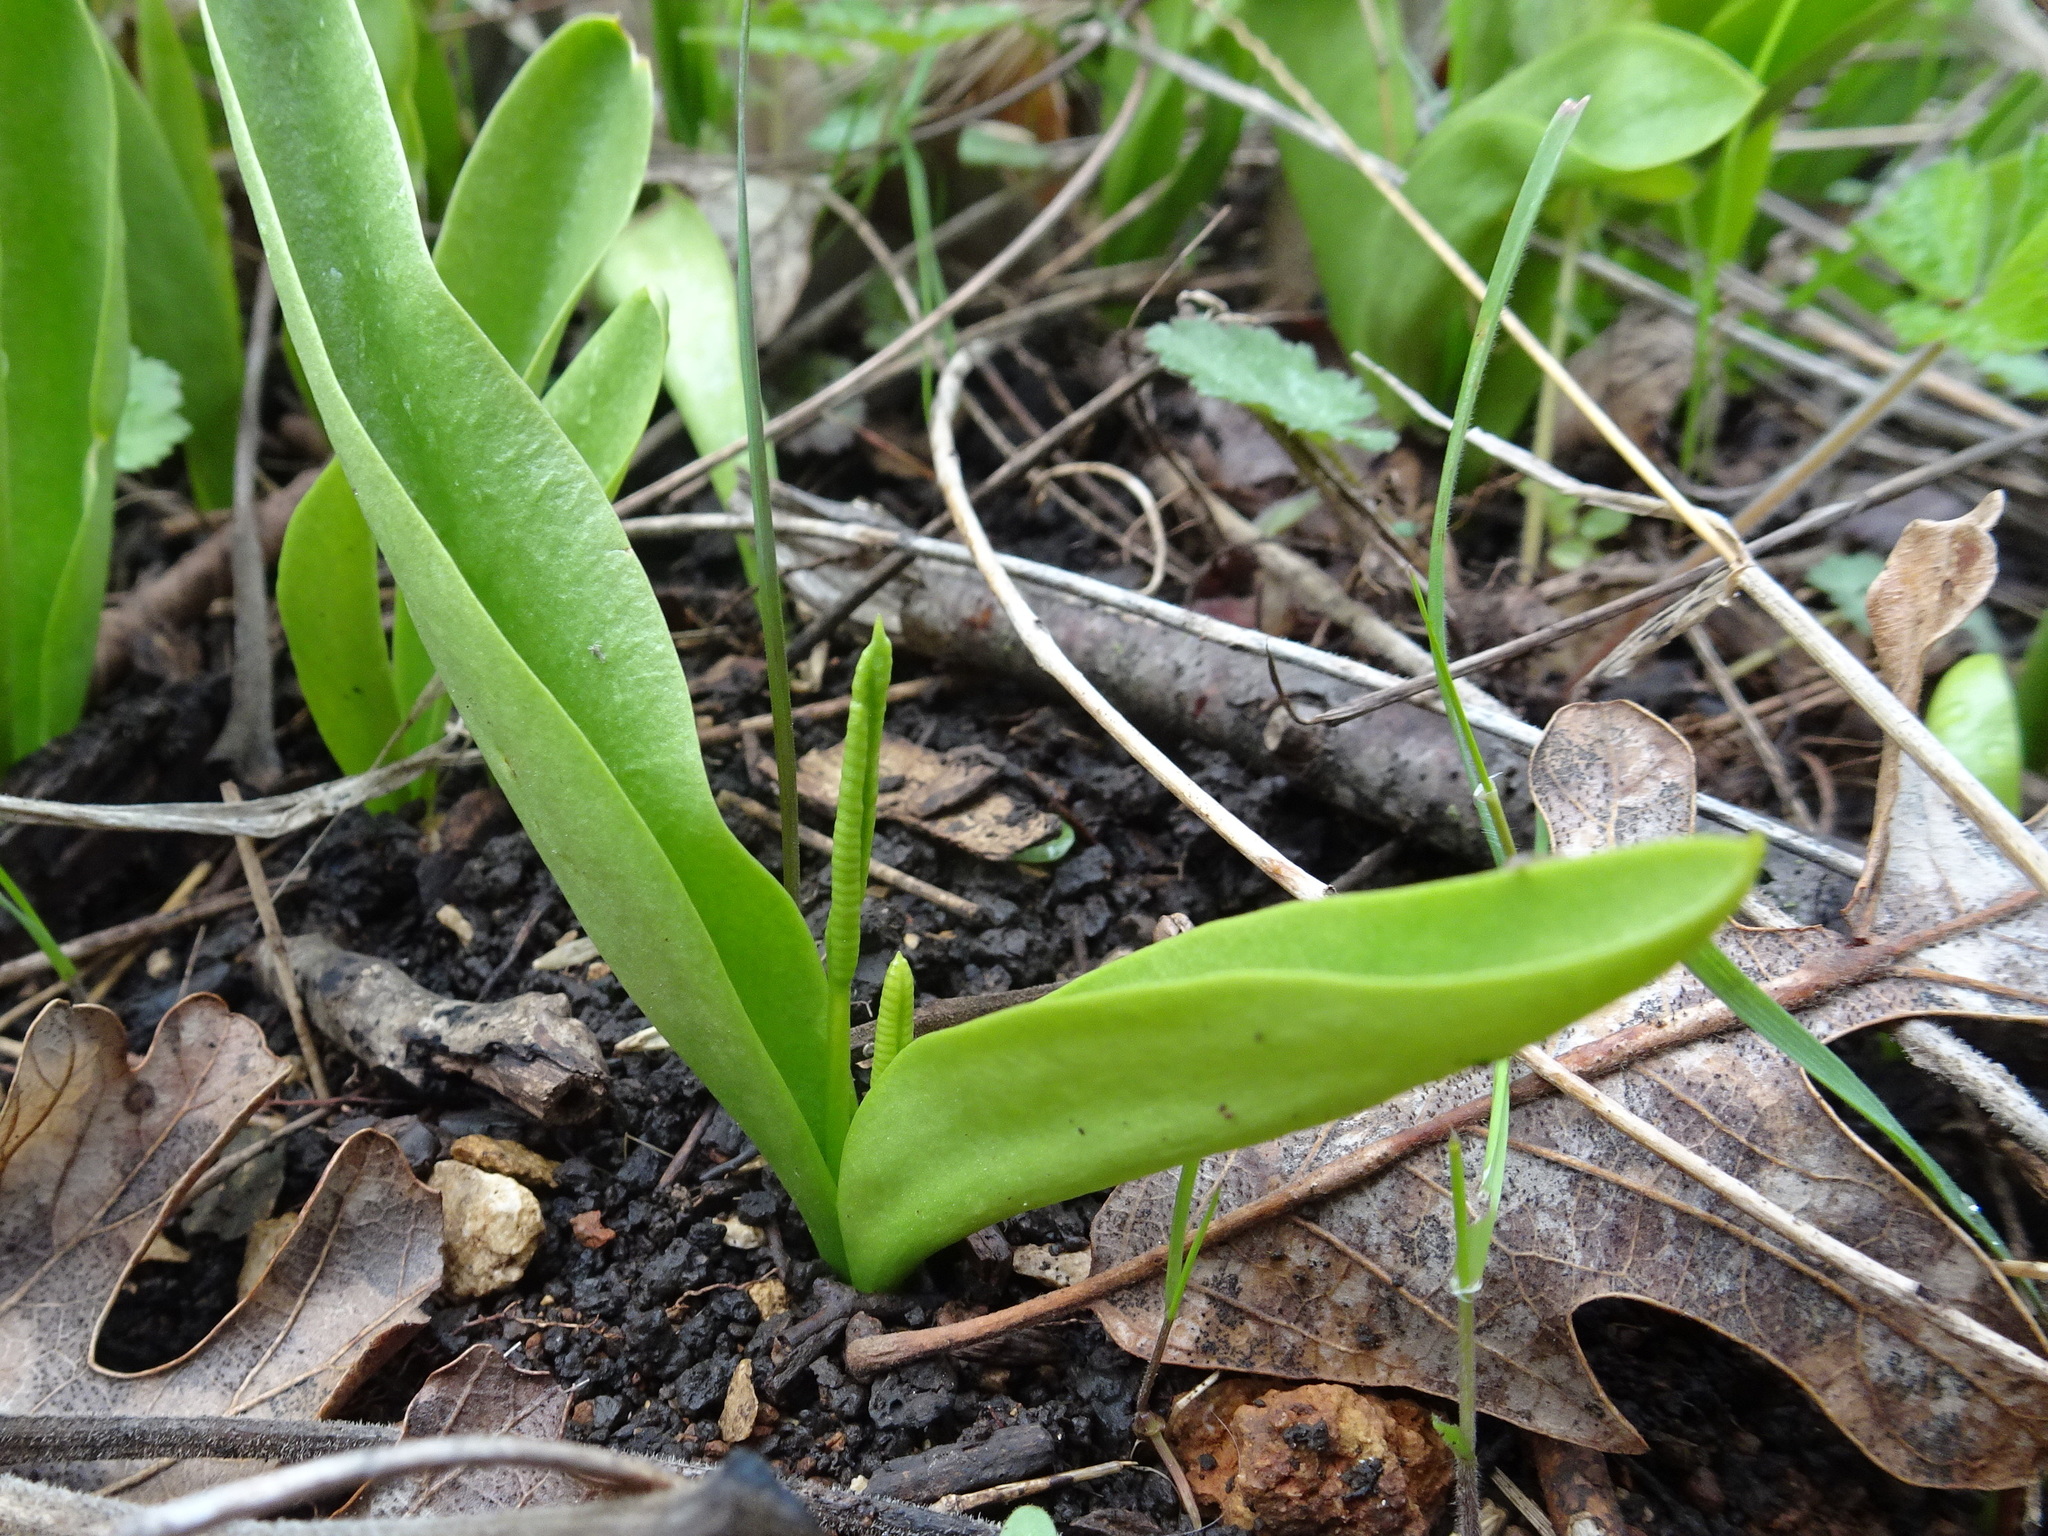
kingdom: Plantae
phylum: Tracheophyta
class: Polypodiopsida
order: Ophioglossales
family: Ophioglossaceae
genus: Ophioglossum
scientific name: Ophioglossum engelmannii
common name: Limestone adder's-tongue
